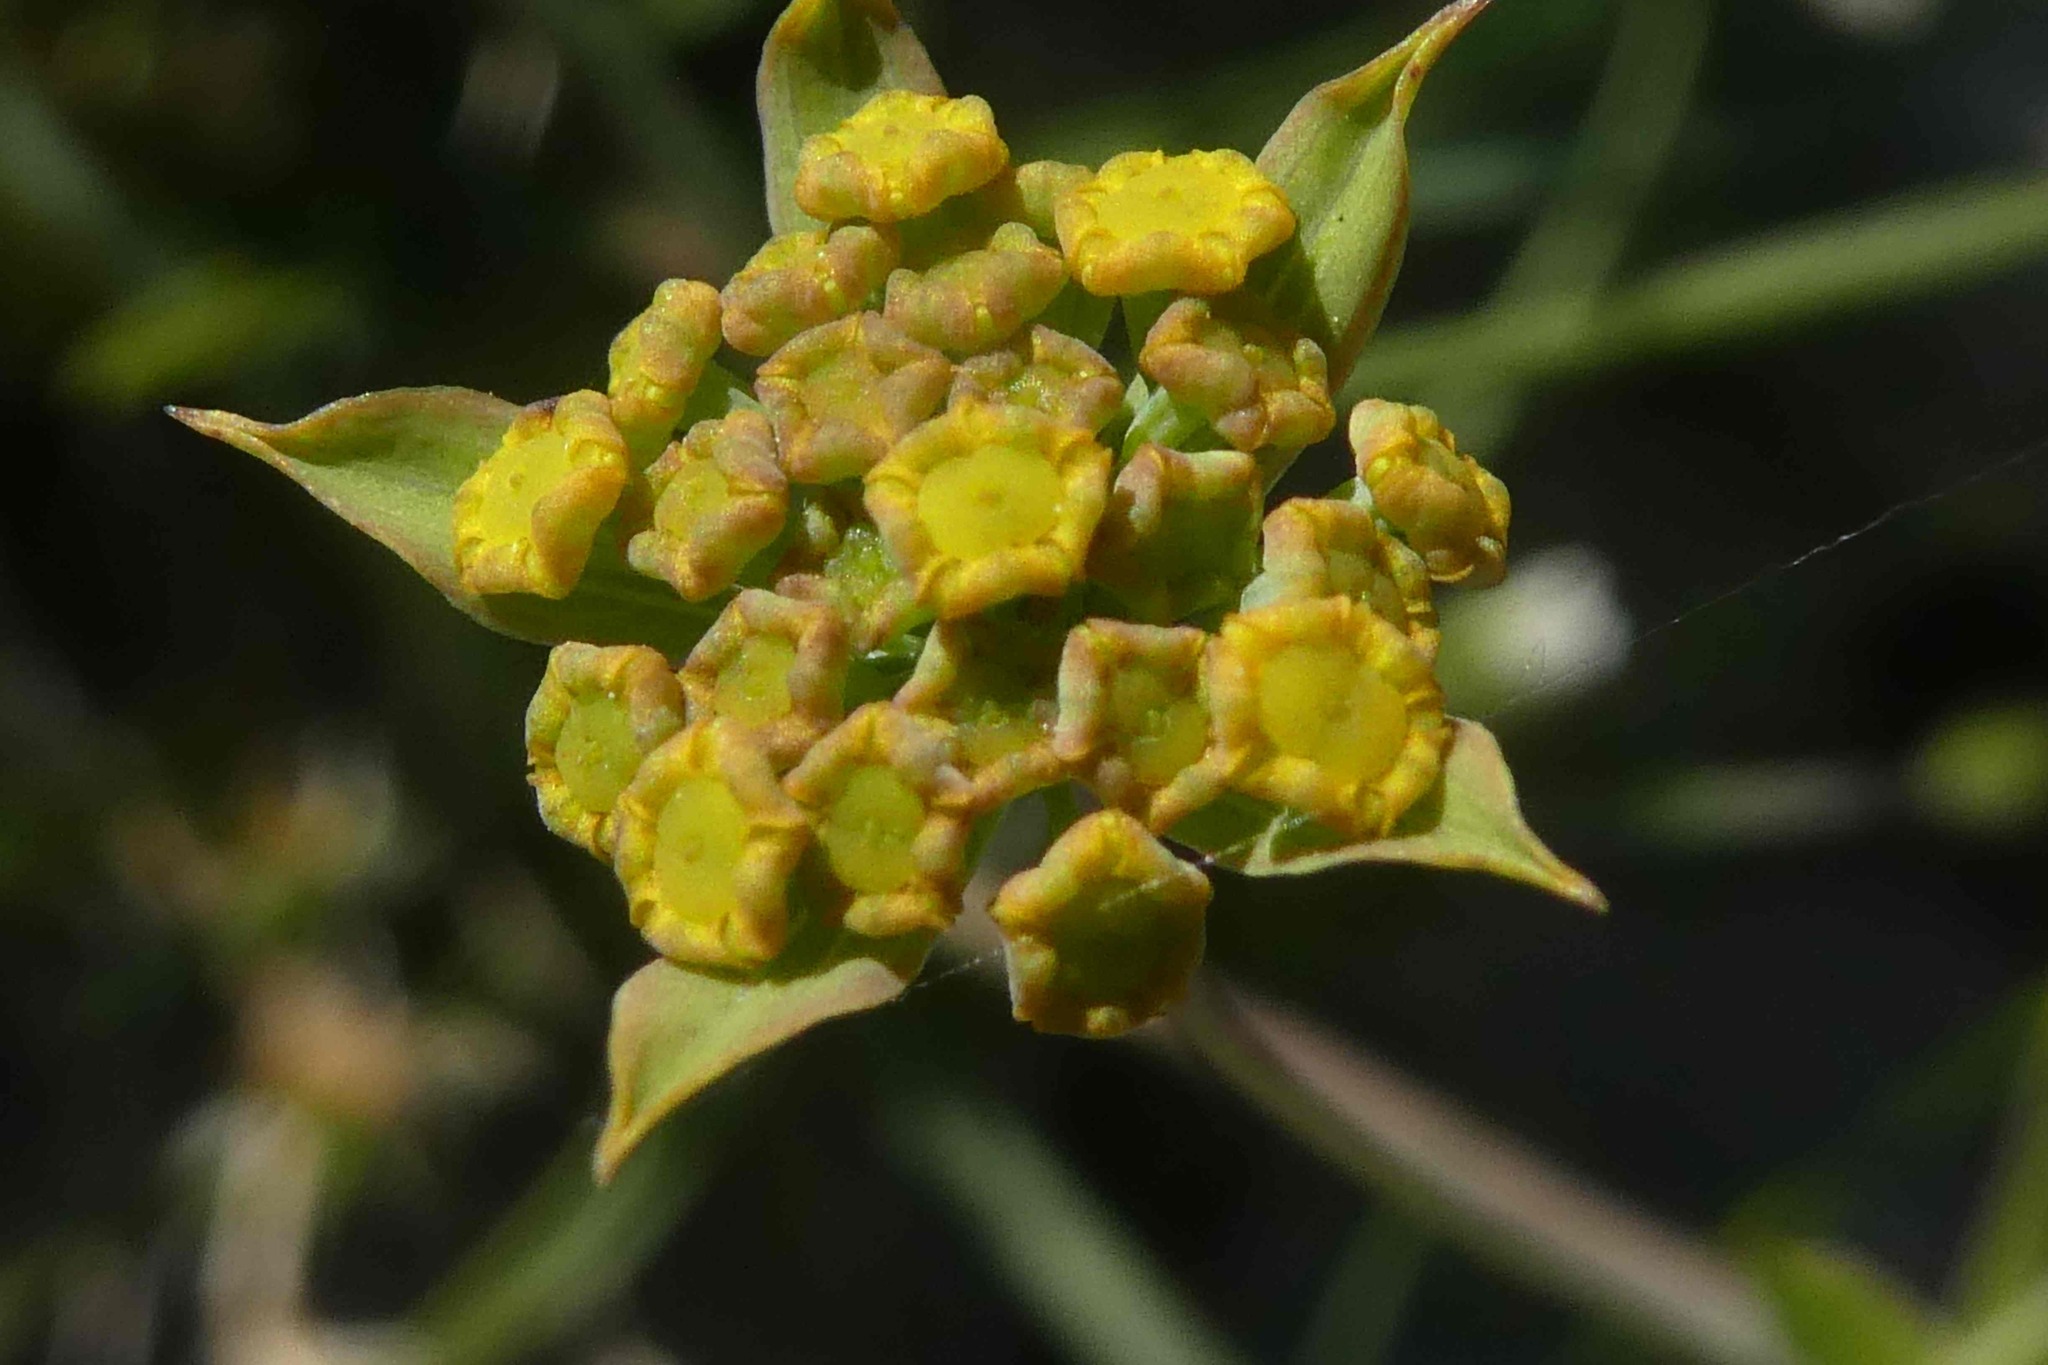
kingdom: Plantae
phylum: Tracheophyta
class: Magnoliopsida
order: Apiales
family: Apiaceae
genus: Bupleurum
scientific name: Bupleurum ranunculoides
